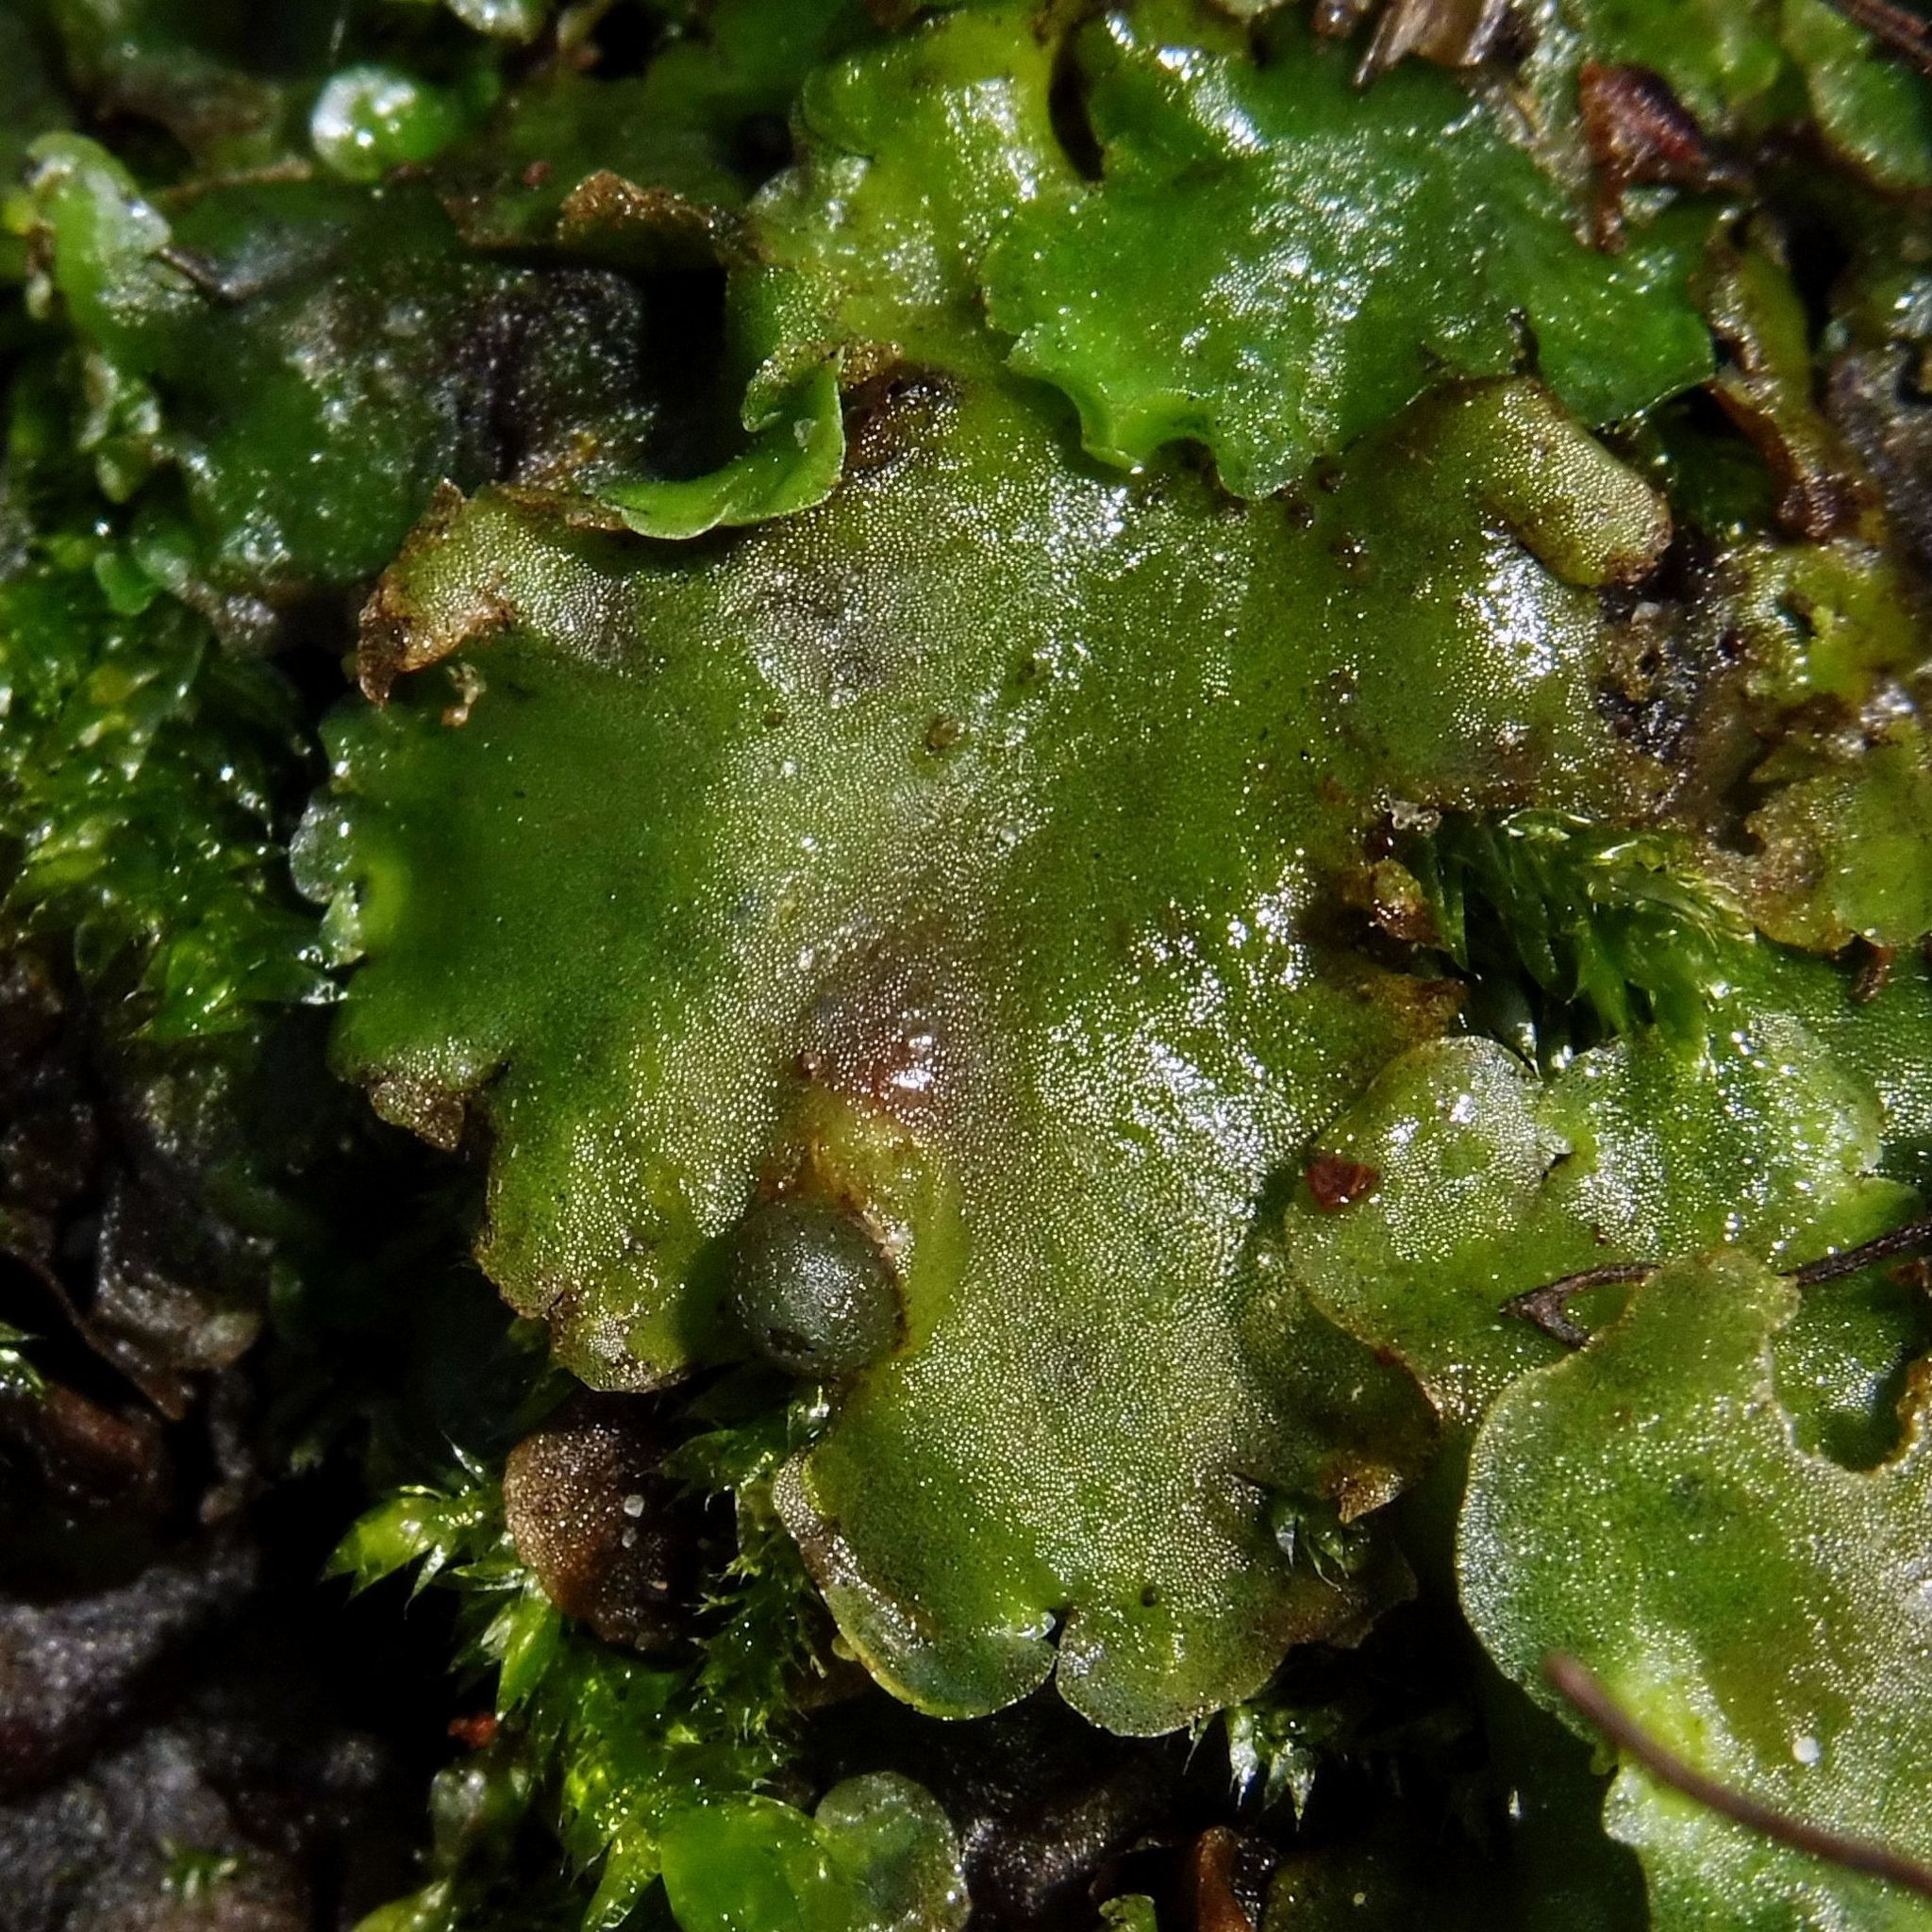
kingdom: Plantae
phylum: Marchantiophyta
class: Jungermanniopsida
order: Pelliales
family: Pelliaceae
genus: Pellia
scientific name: Pellia epiphylla
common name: Common pellia
